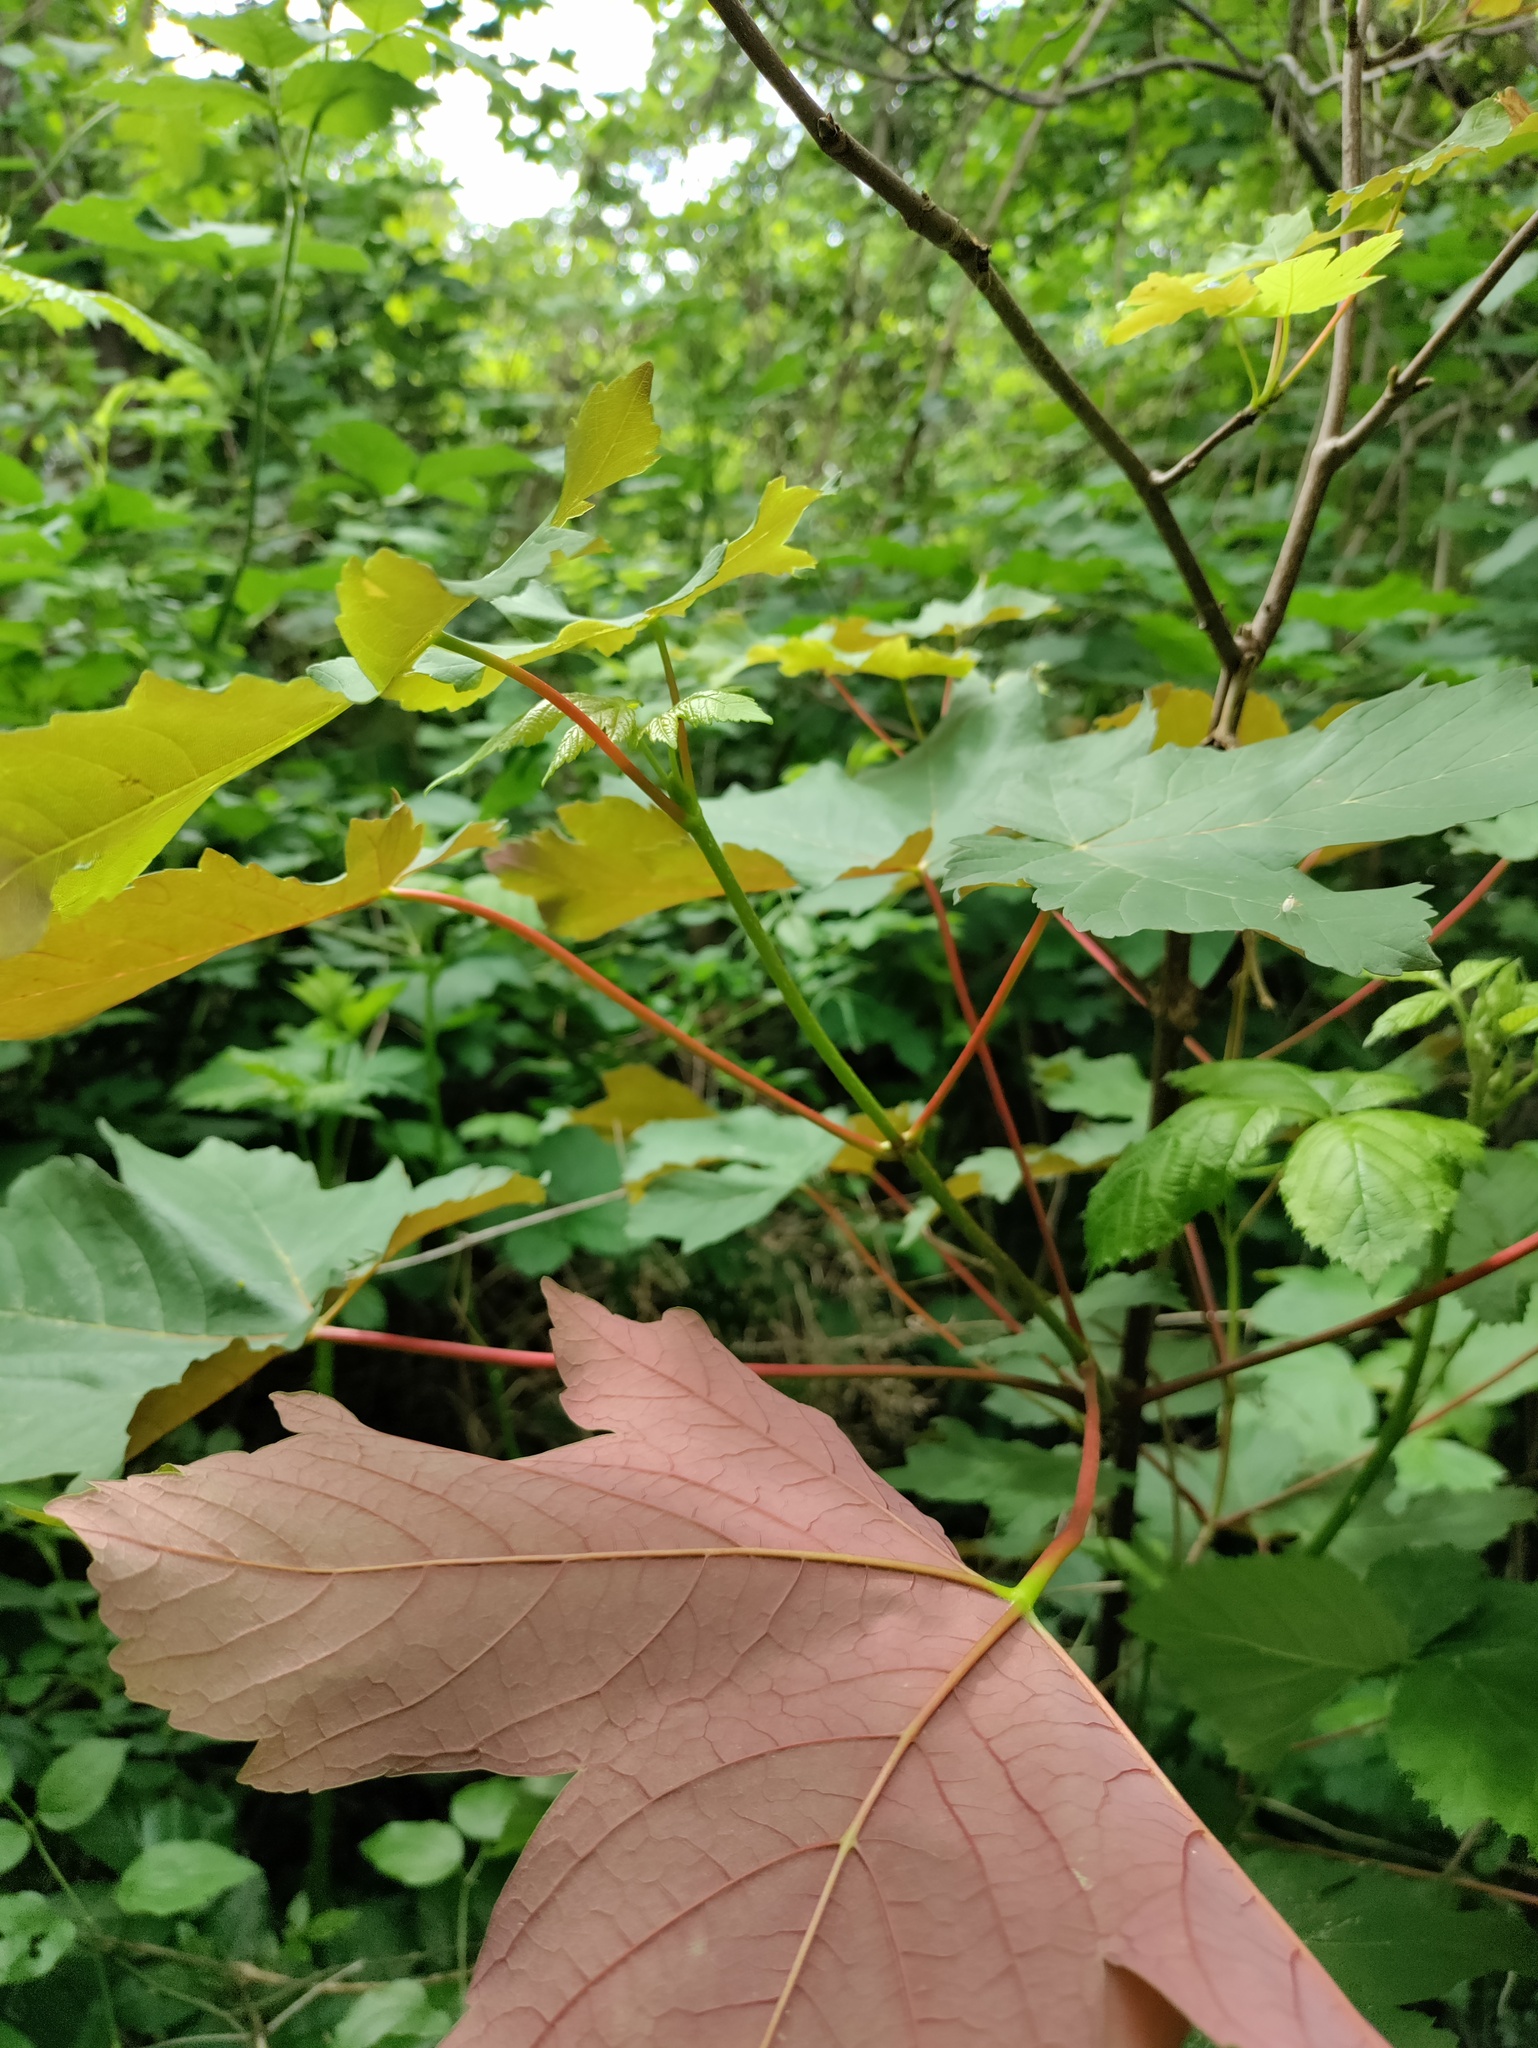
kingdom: Plantae
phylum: Tracheophyta
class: Magnoliopsida
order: Sapindales
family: Sapindaceae
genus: Acer
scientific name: Acer pseudoplatanus
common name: Sycamore
